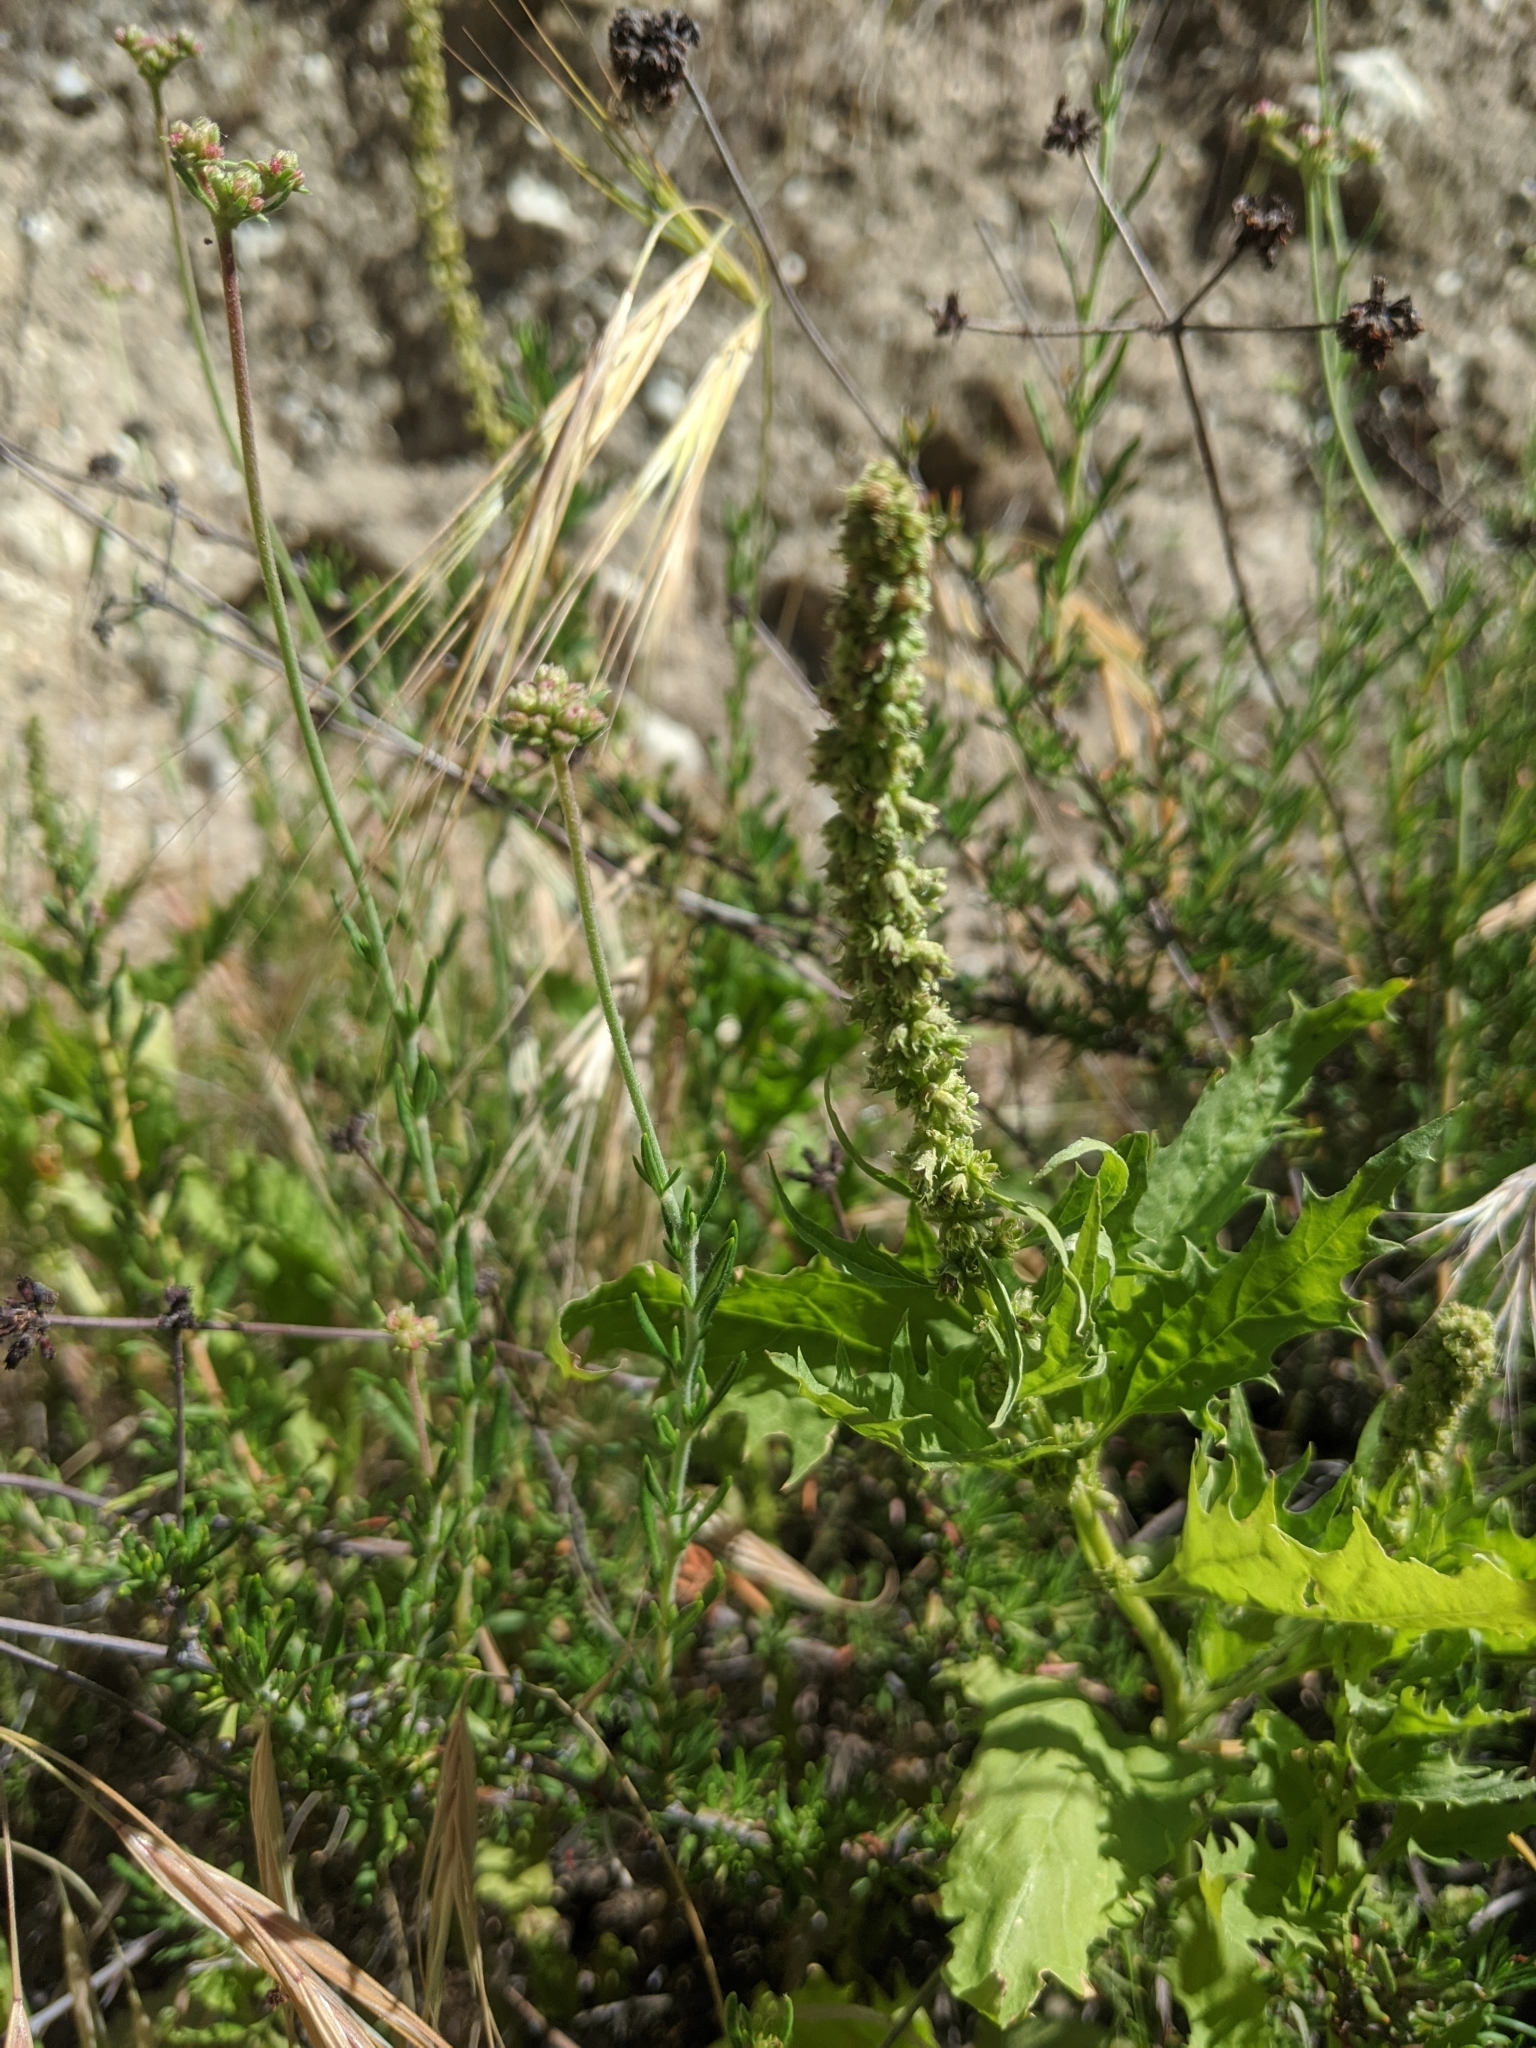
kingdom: Plantae
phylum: Tracheophyta
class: Magnoliopsida
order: Cucurbitales
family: Datiscaceae
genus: Datisca
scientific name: Datisca glomerata
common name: Durango-root
